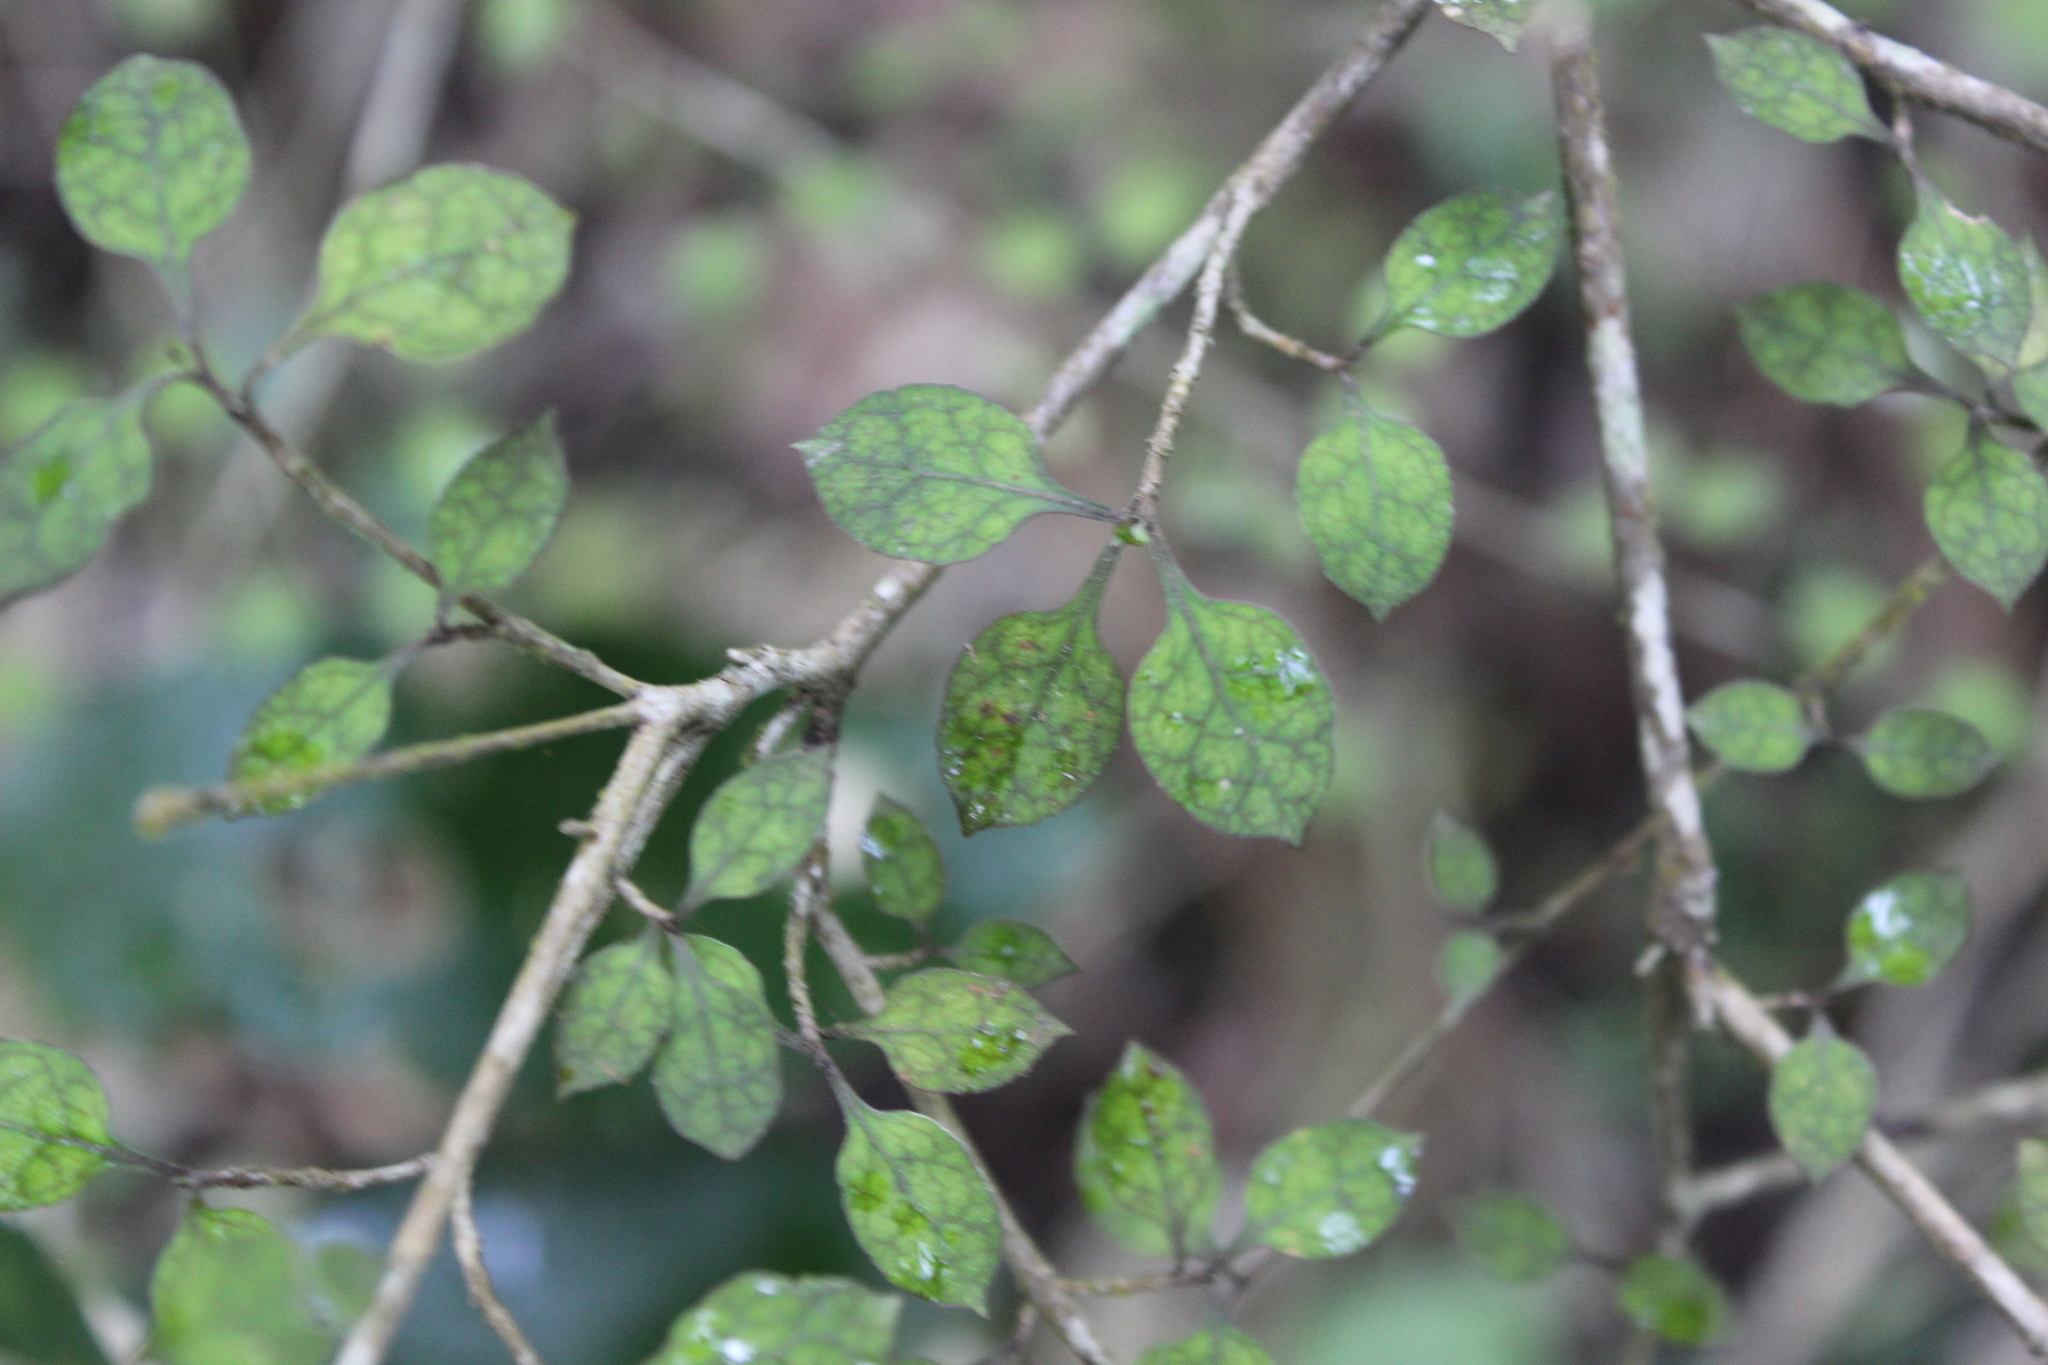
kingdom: Plantae
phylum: Tracheophyta
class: Magnoliopsida
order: Gentianales
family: Rubiaceae
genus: Coprosma
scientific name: Coprosma areolata
